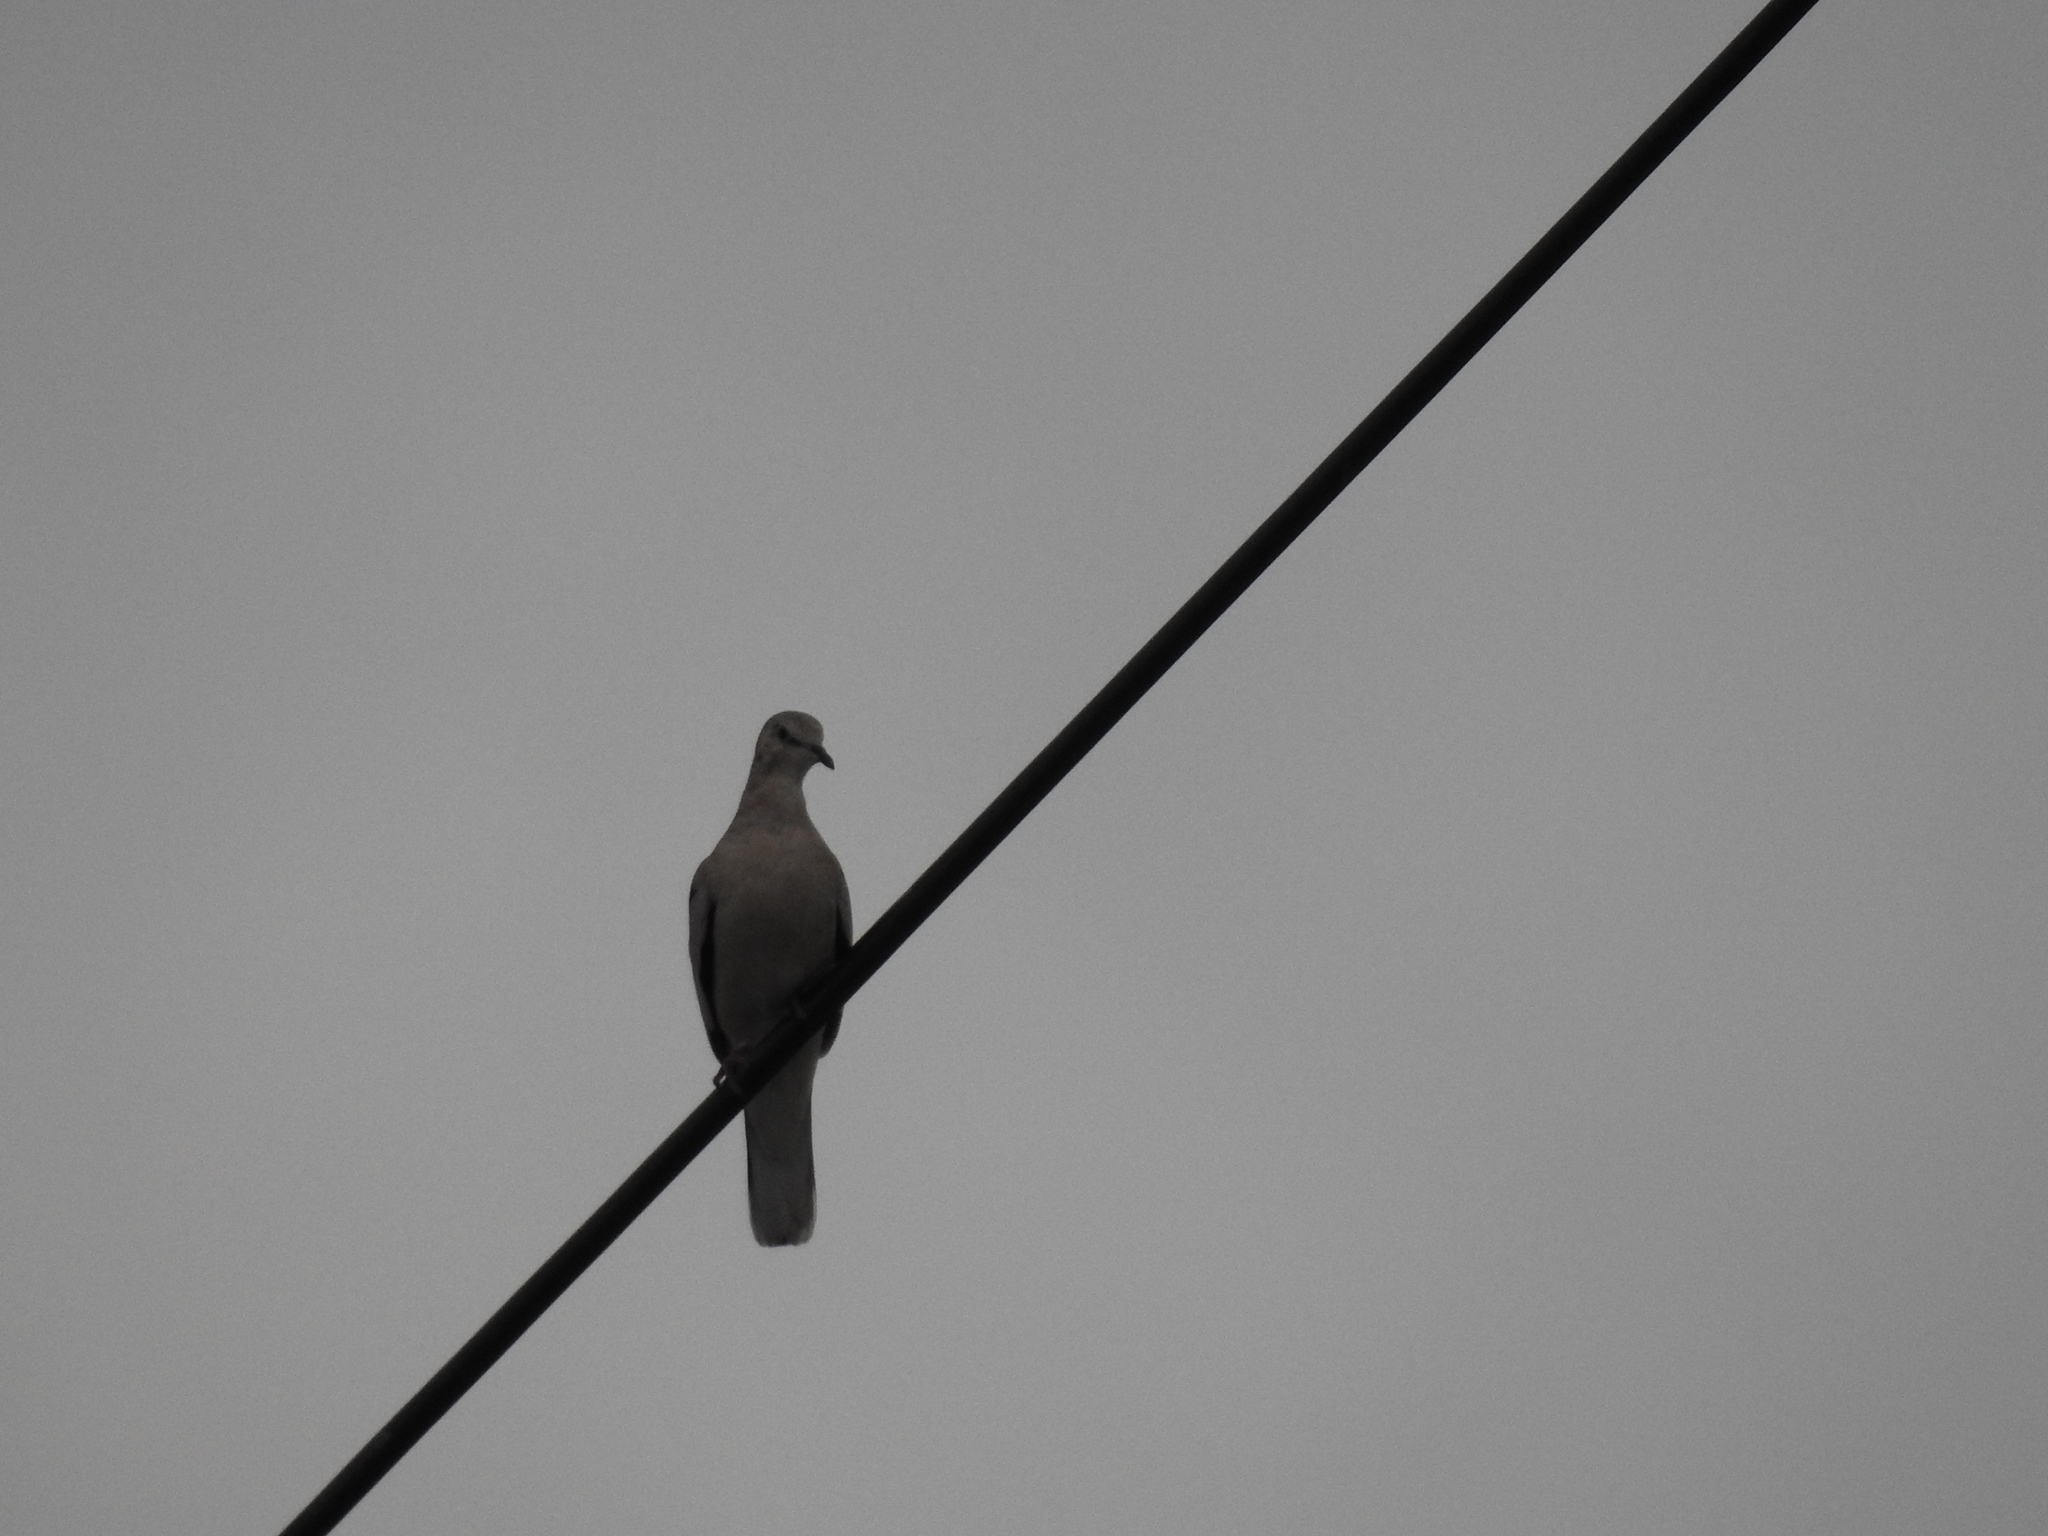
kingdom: Animalia
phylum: Chordata
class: Aves
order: Columbiformes
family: Columbidae
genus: Zenaida
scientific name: Zenaida auriculata
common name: Eared dove
